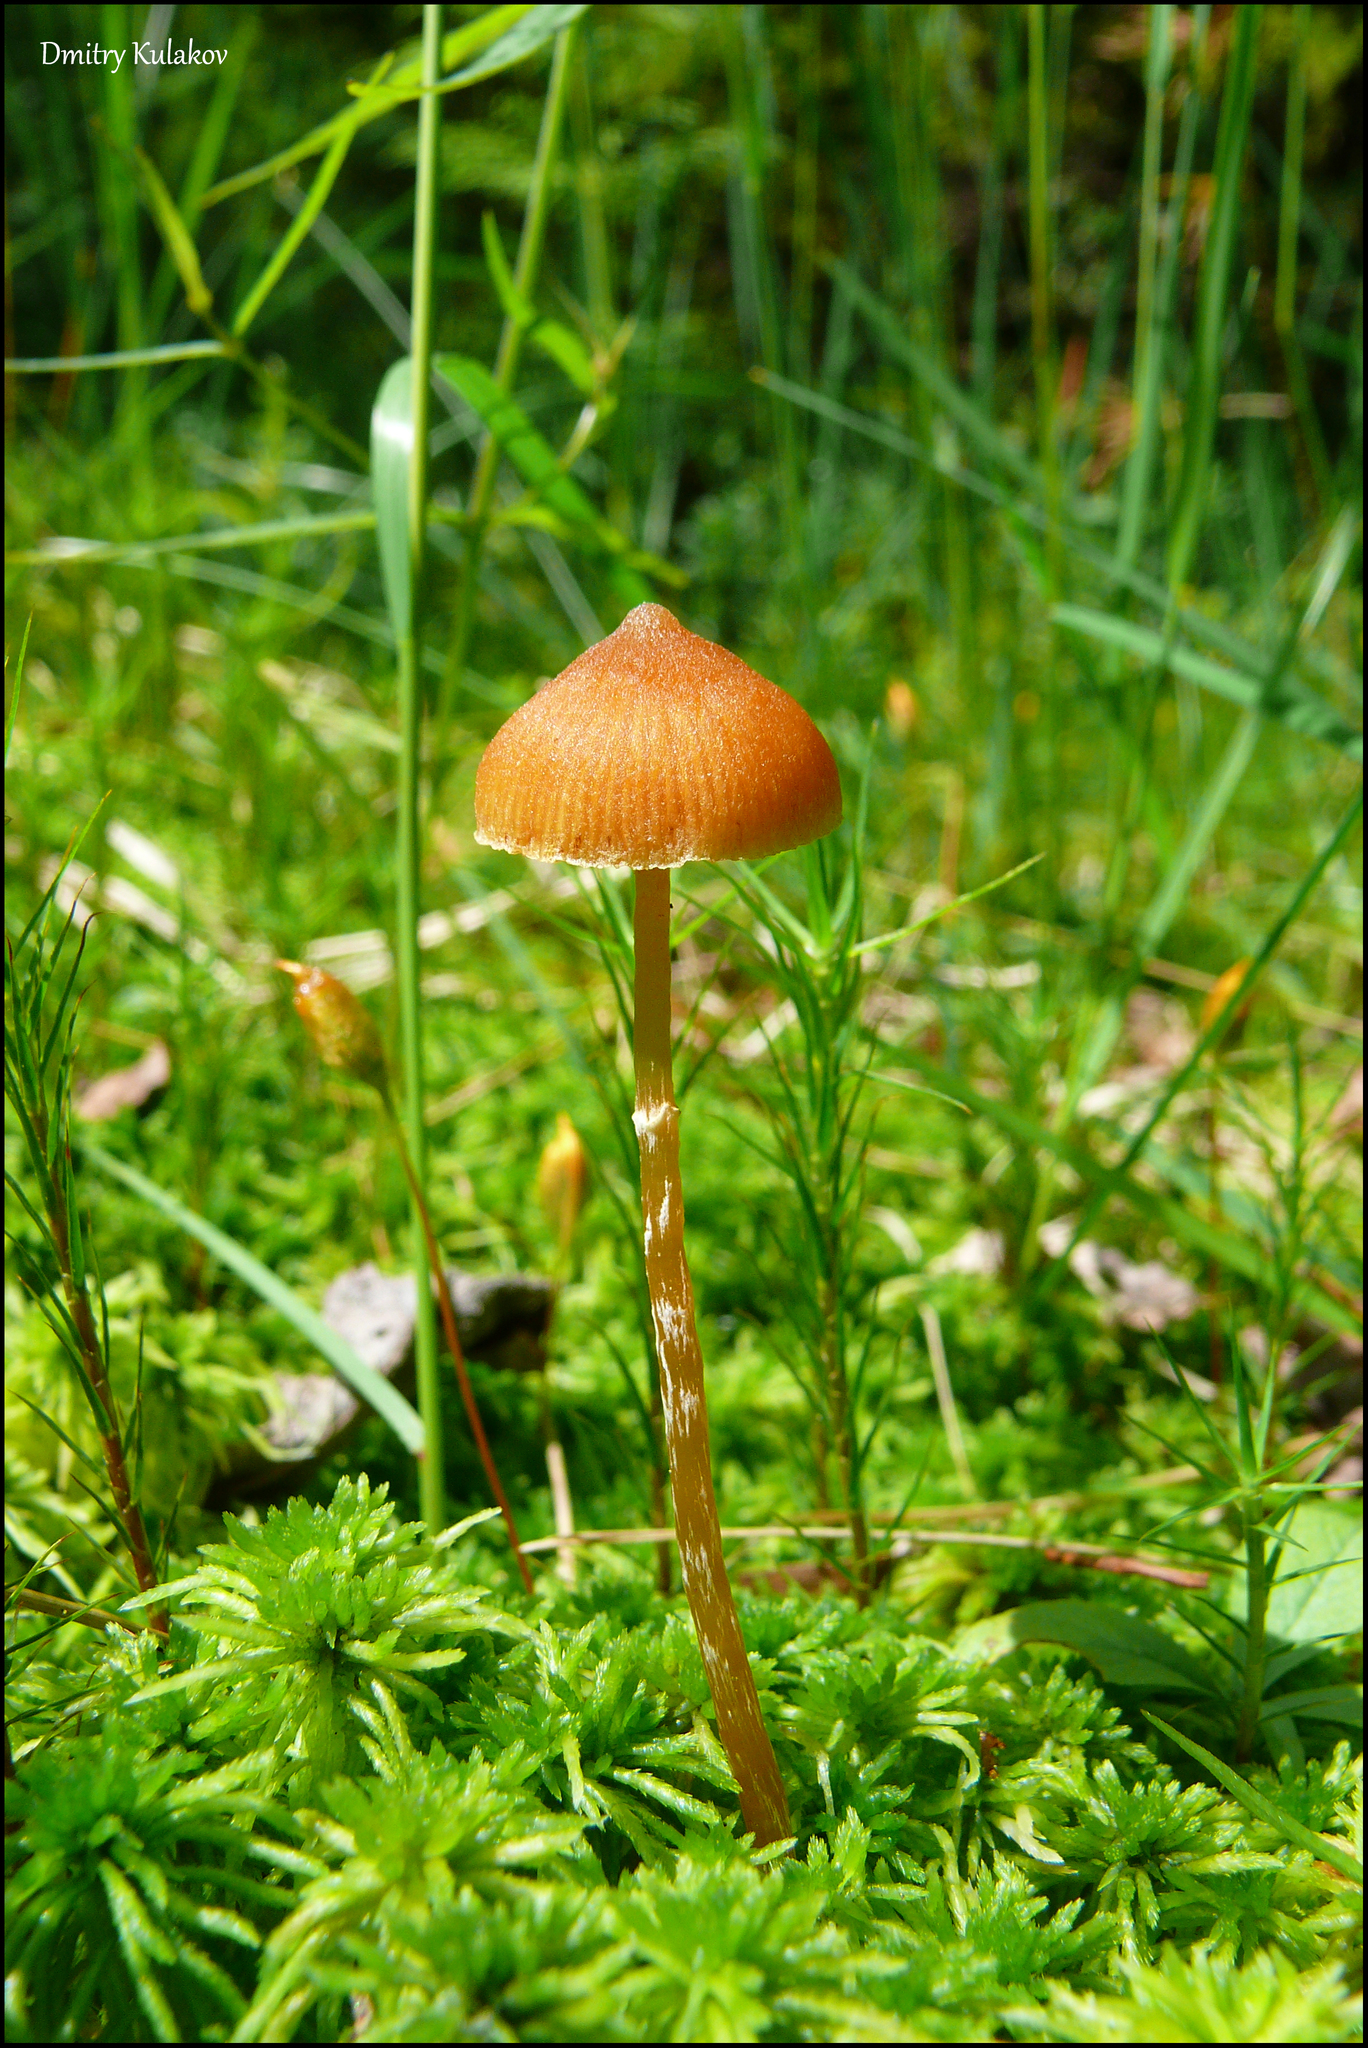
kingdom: Fungi
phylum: Basidiomycota
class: Agaricomycetes
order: Agaricales
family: Hymenogastraceae
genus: Galerina
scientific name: Galerina paludosa
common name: Bog bell
